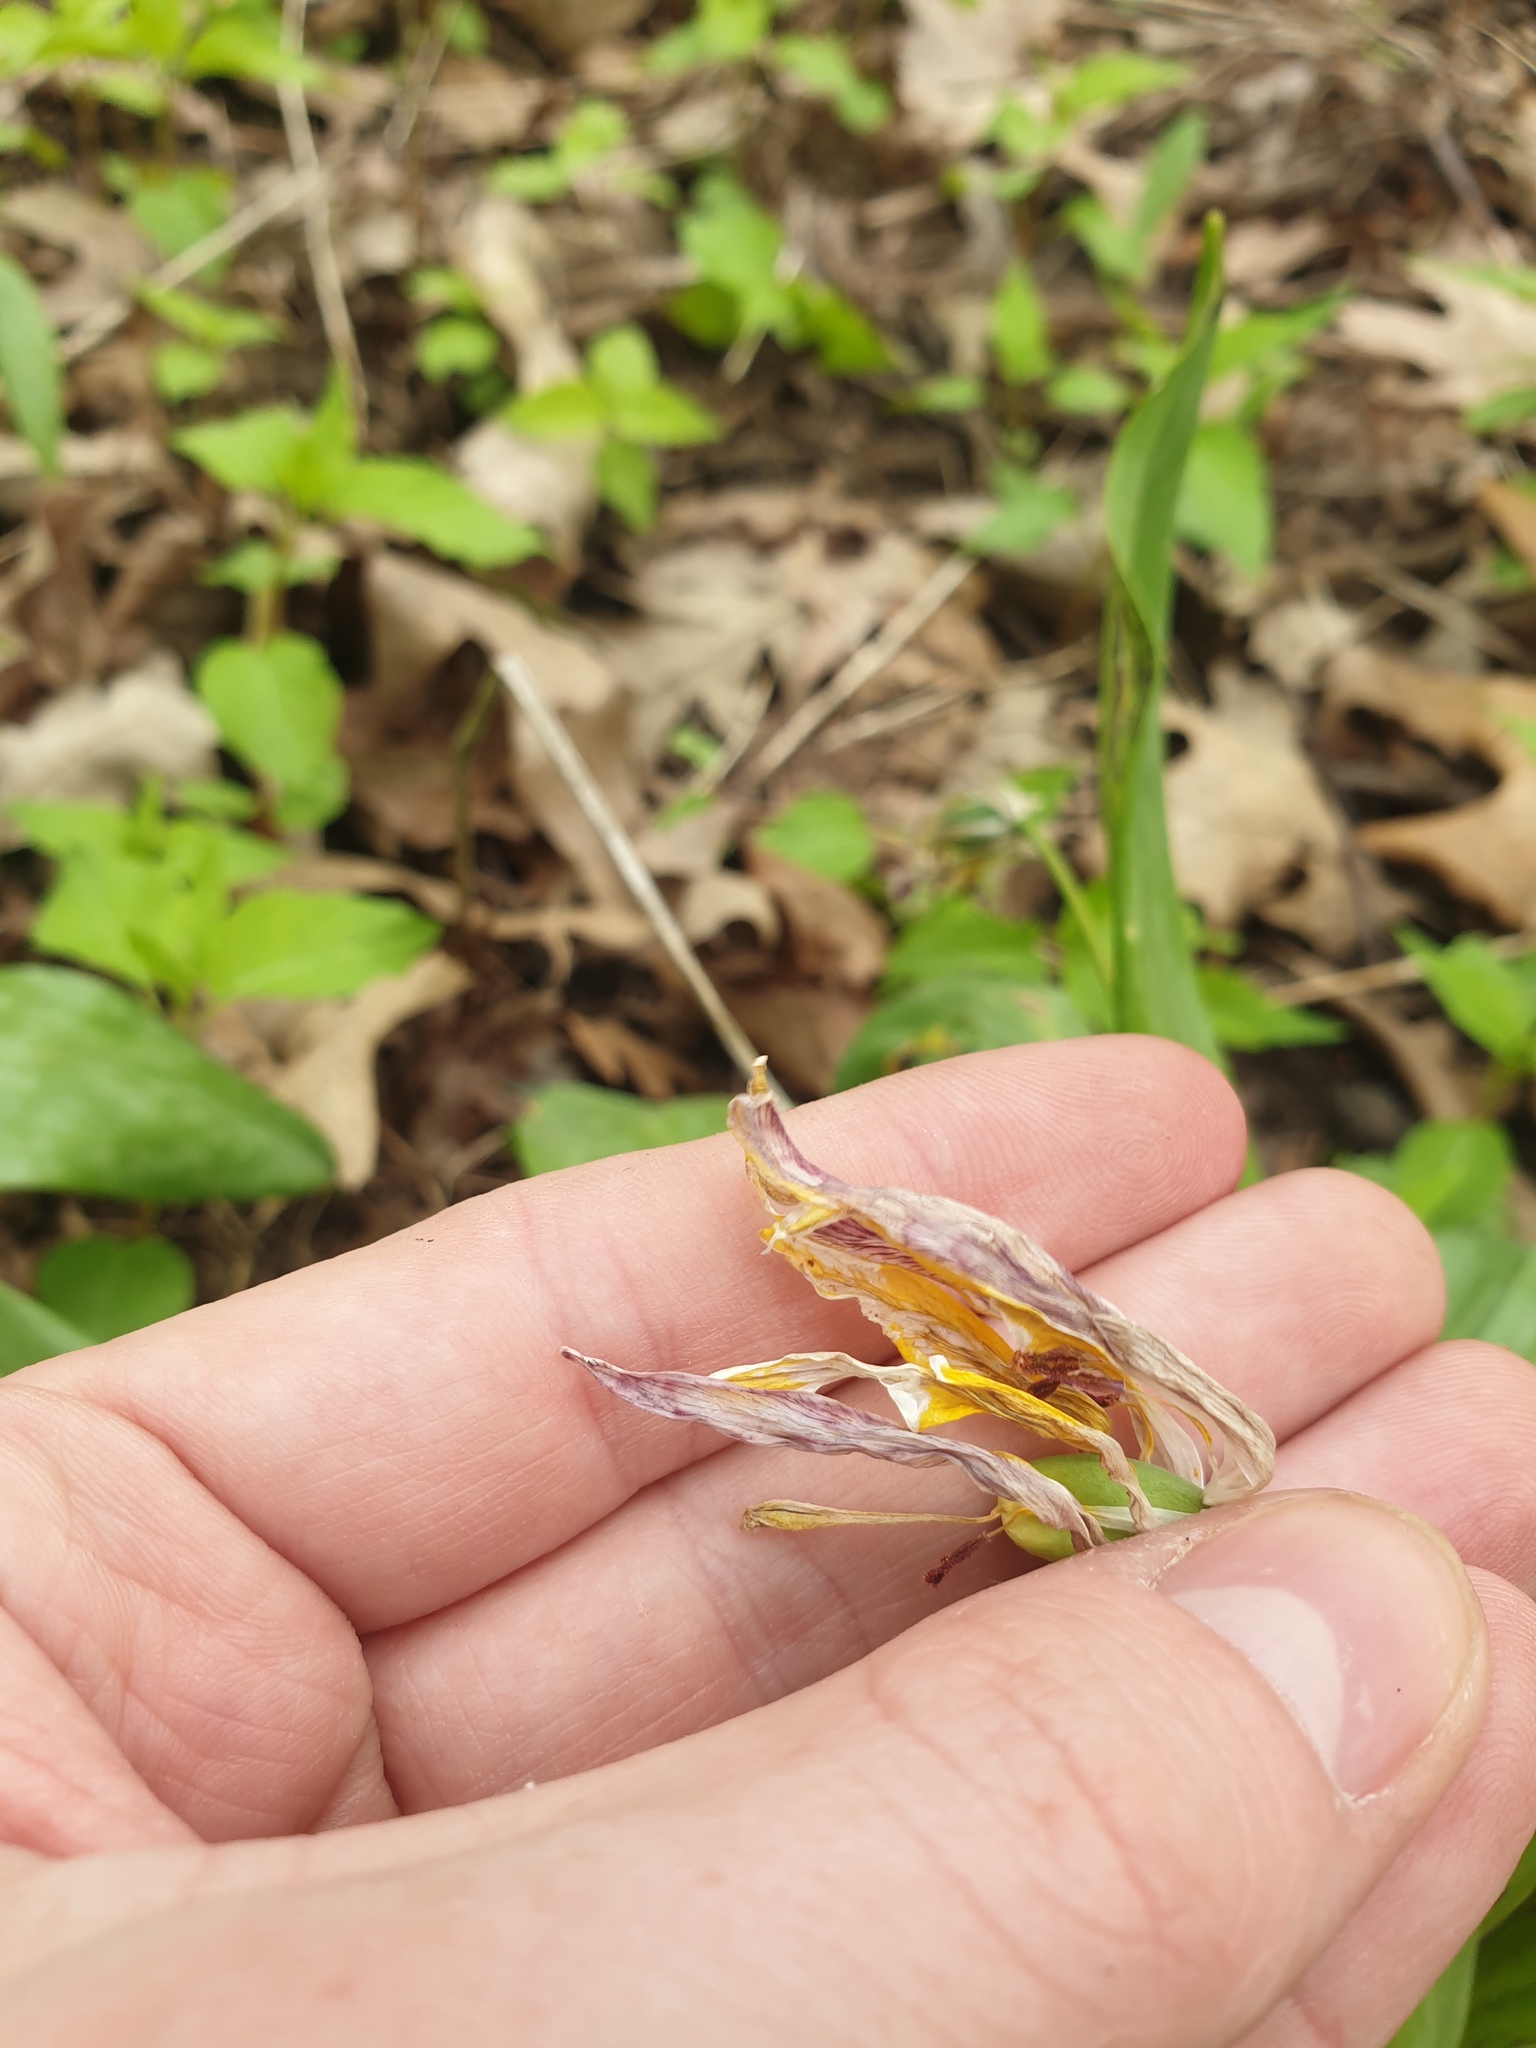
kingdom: Plantae
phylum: Tracheophyta
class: Liliopsida
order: Liliales
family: Liliaceae
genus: Erythronium
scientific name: Erythronium americanum
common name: Yellow adder's-tongue
